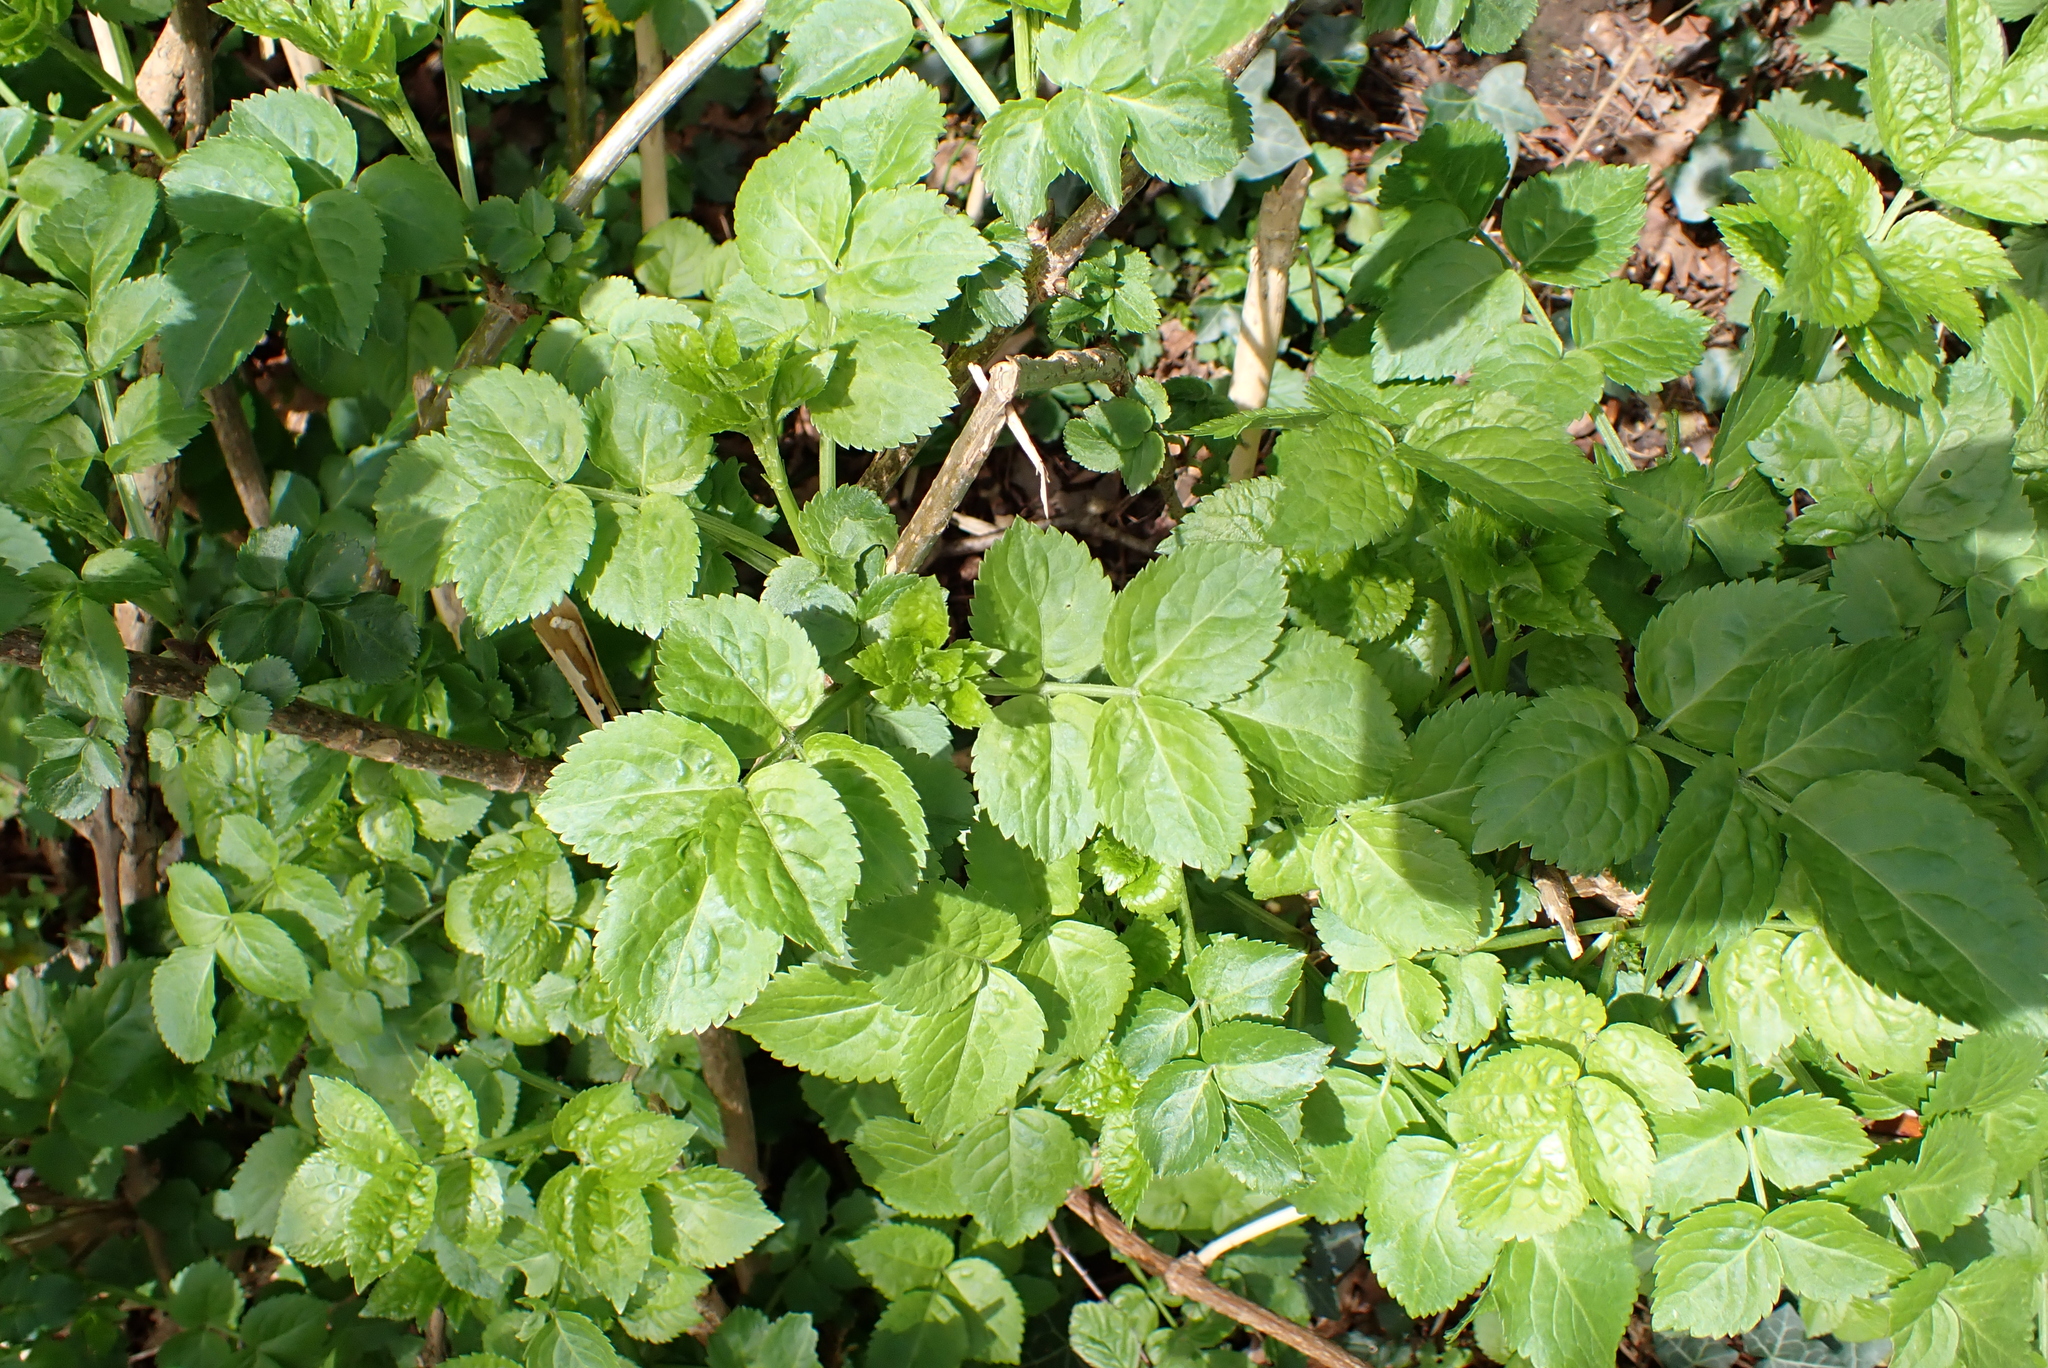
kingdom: Plantae
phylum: Tracheophyta
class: Magnoliopsida
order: Dipsacales
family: Viburnaceae
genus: Sambucus
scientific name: Sambucus nigra
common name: Elder
